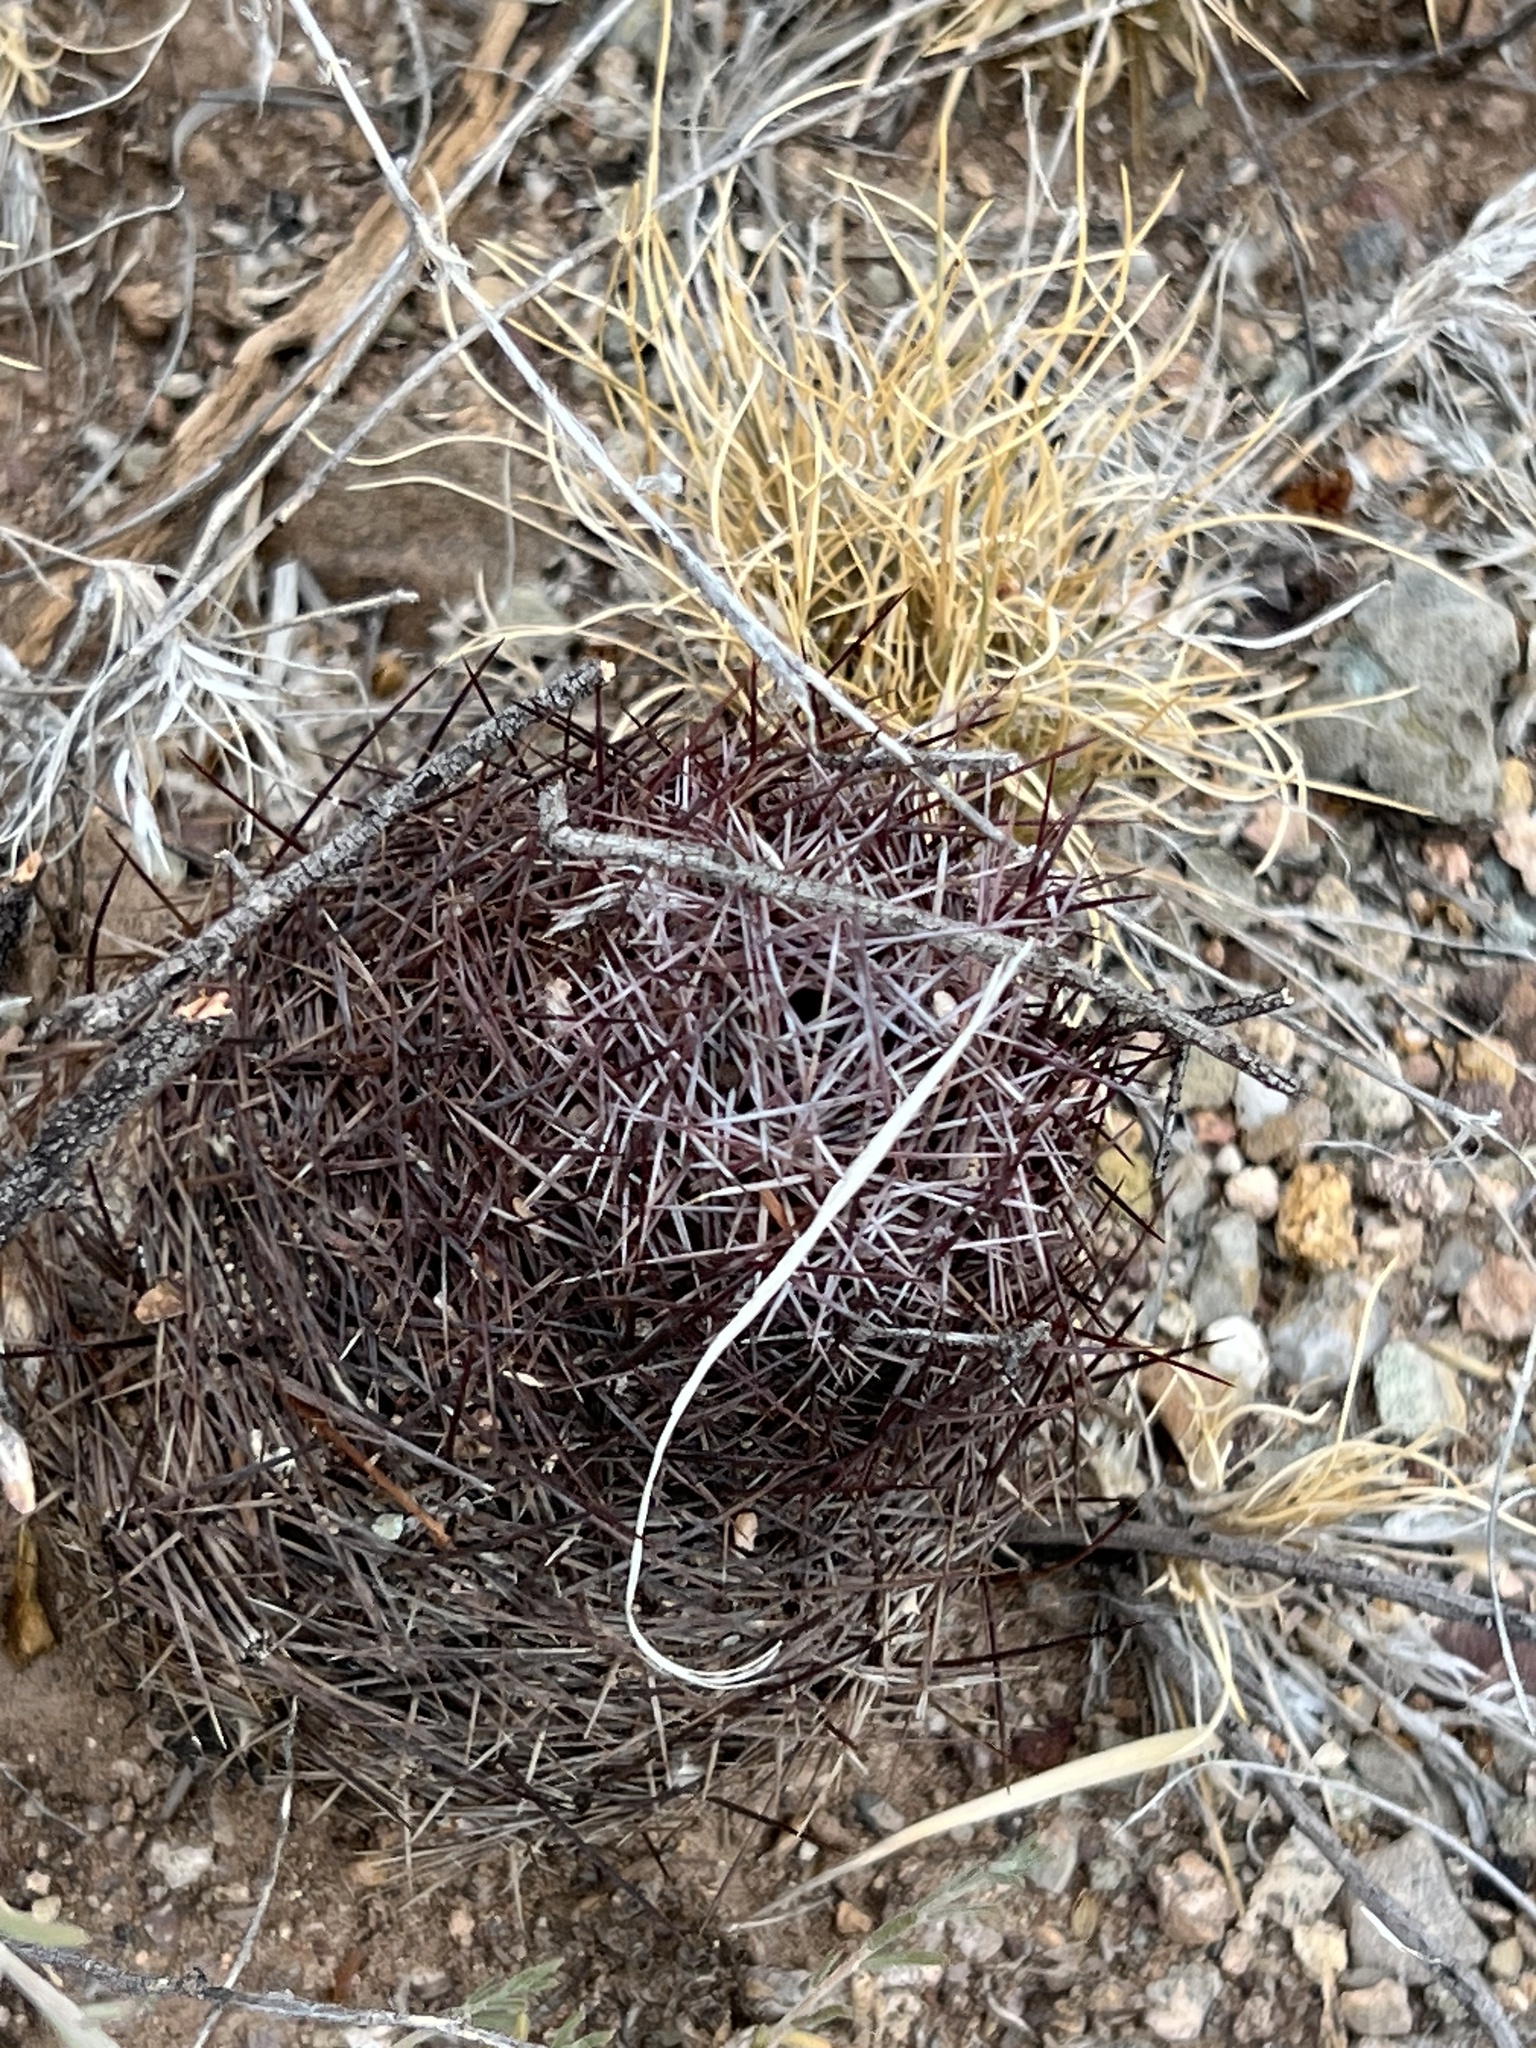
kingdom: Plantae
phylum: Tracheophyta
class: Magnoliopsida
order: Caryophyllales
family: Cactaceae
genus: Sclerocactus
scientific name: Sclerocactus johnsonii
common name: Eight-spine fishhook cactus
